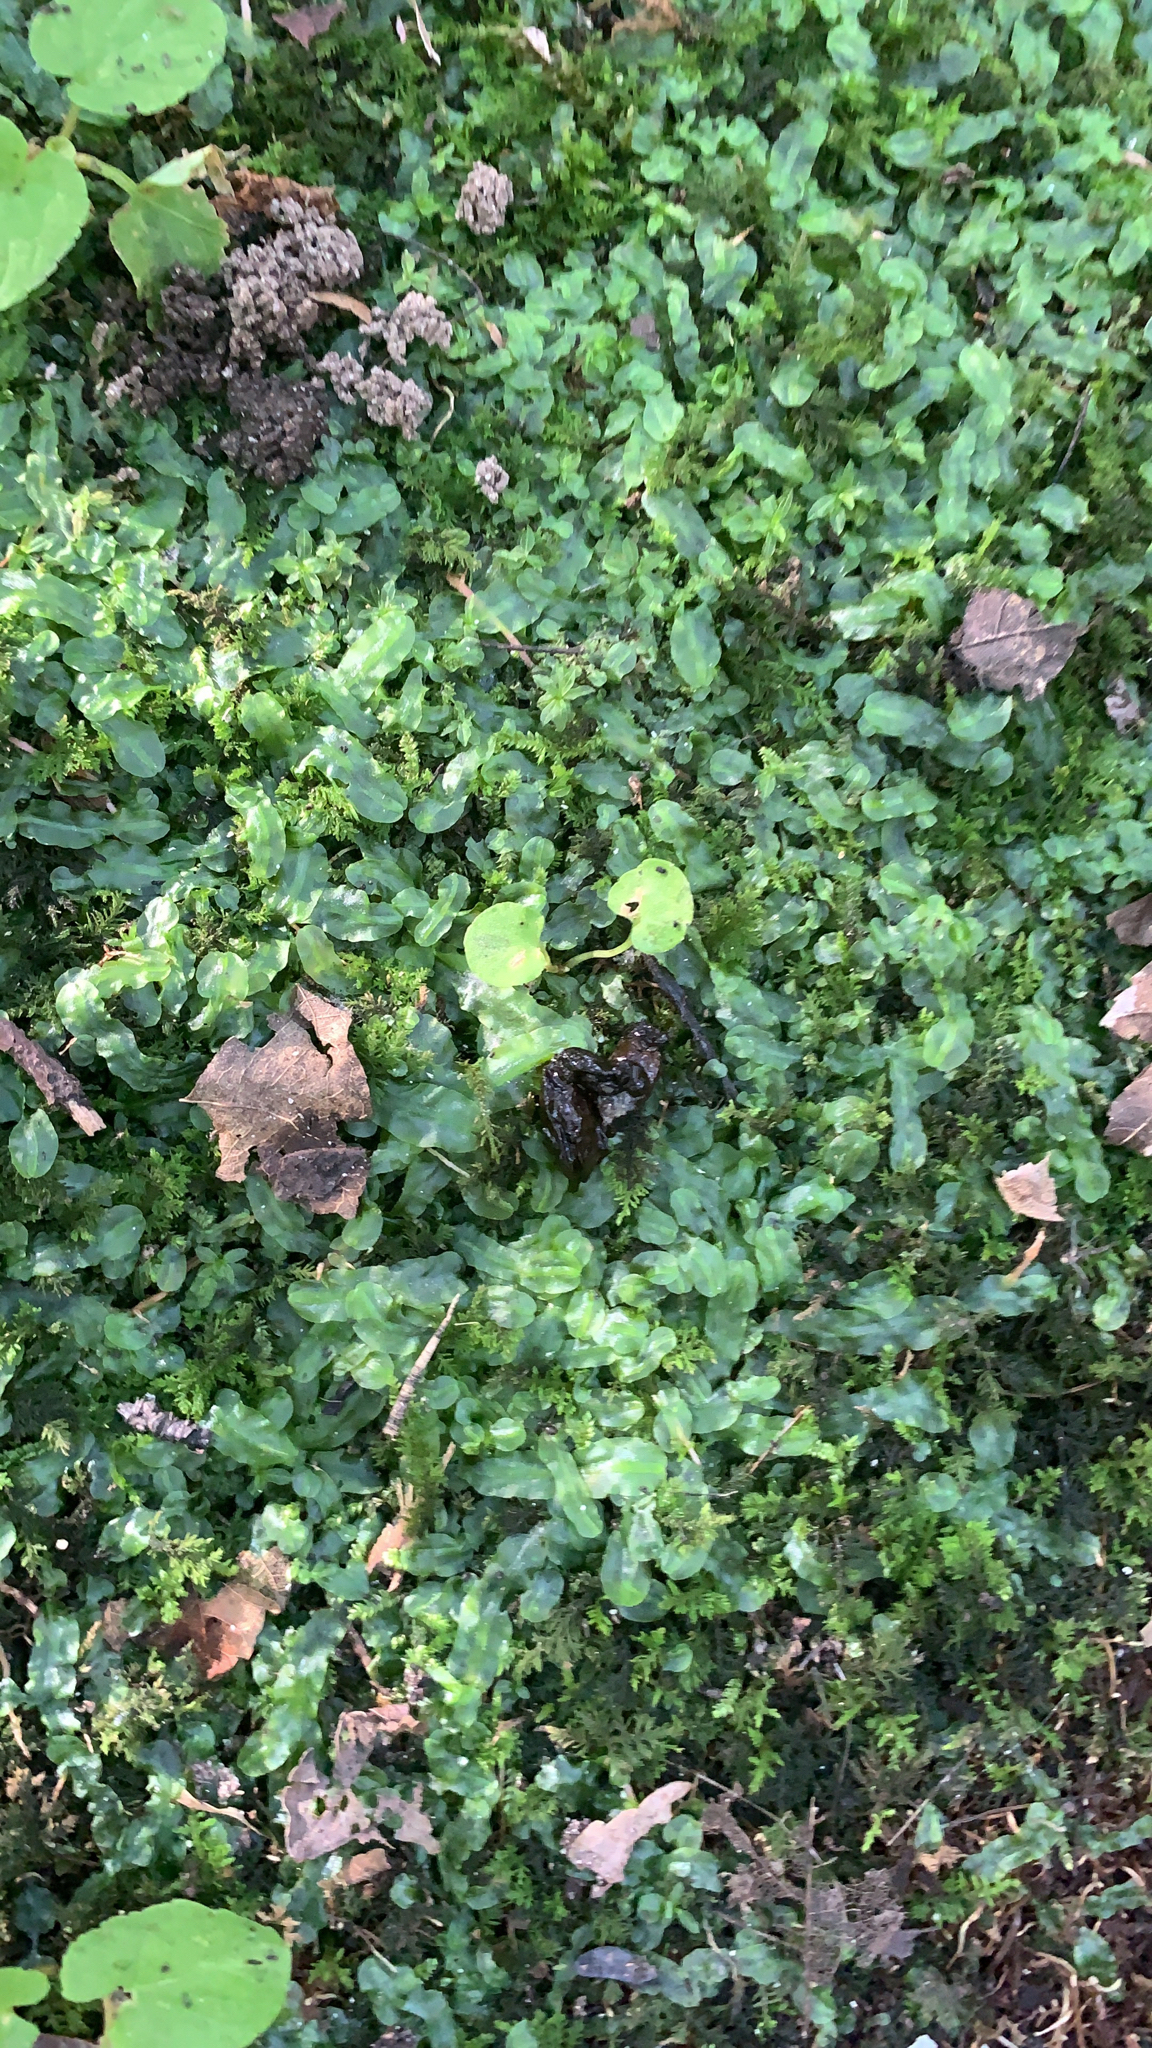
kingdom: Plantae
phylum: Marchantiophyta
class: Jungermanniopsida
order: Pallaviciniales
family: Pallaviciniaceae
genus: Pallavicinia
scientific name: Pallavicinia lyellii
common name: Veilwort
